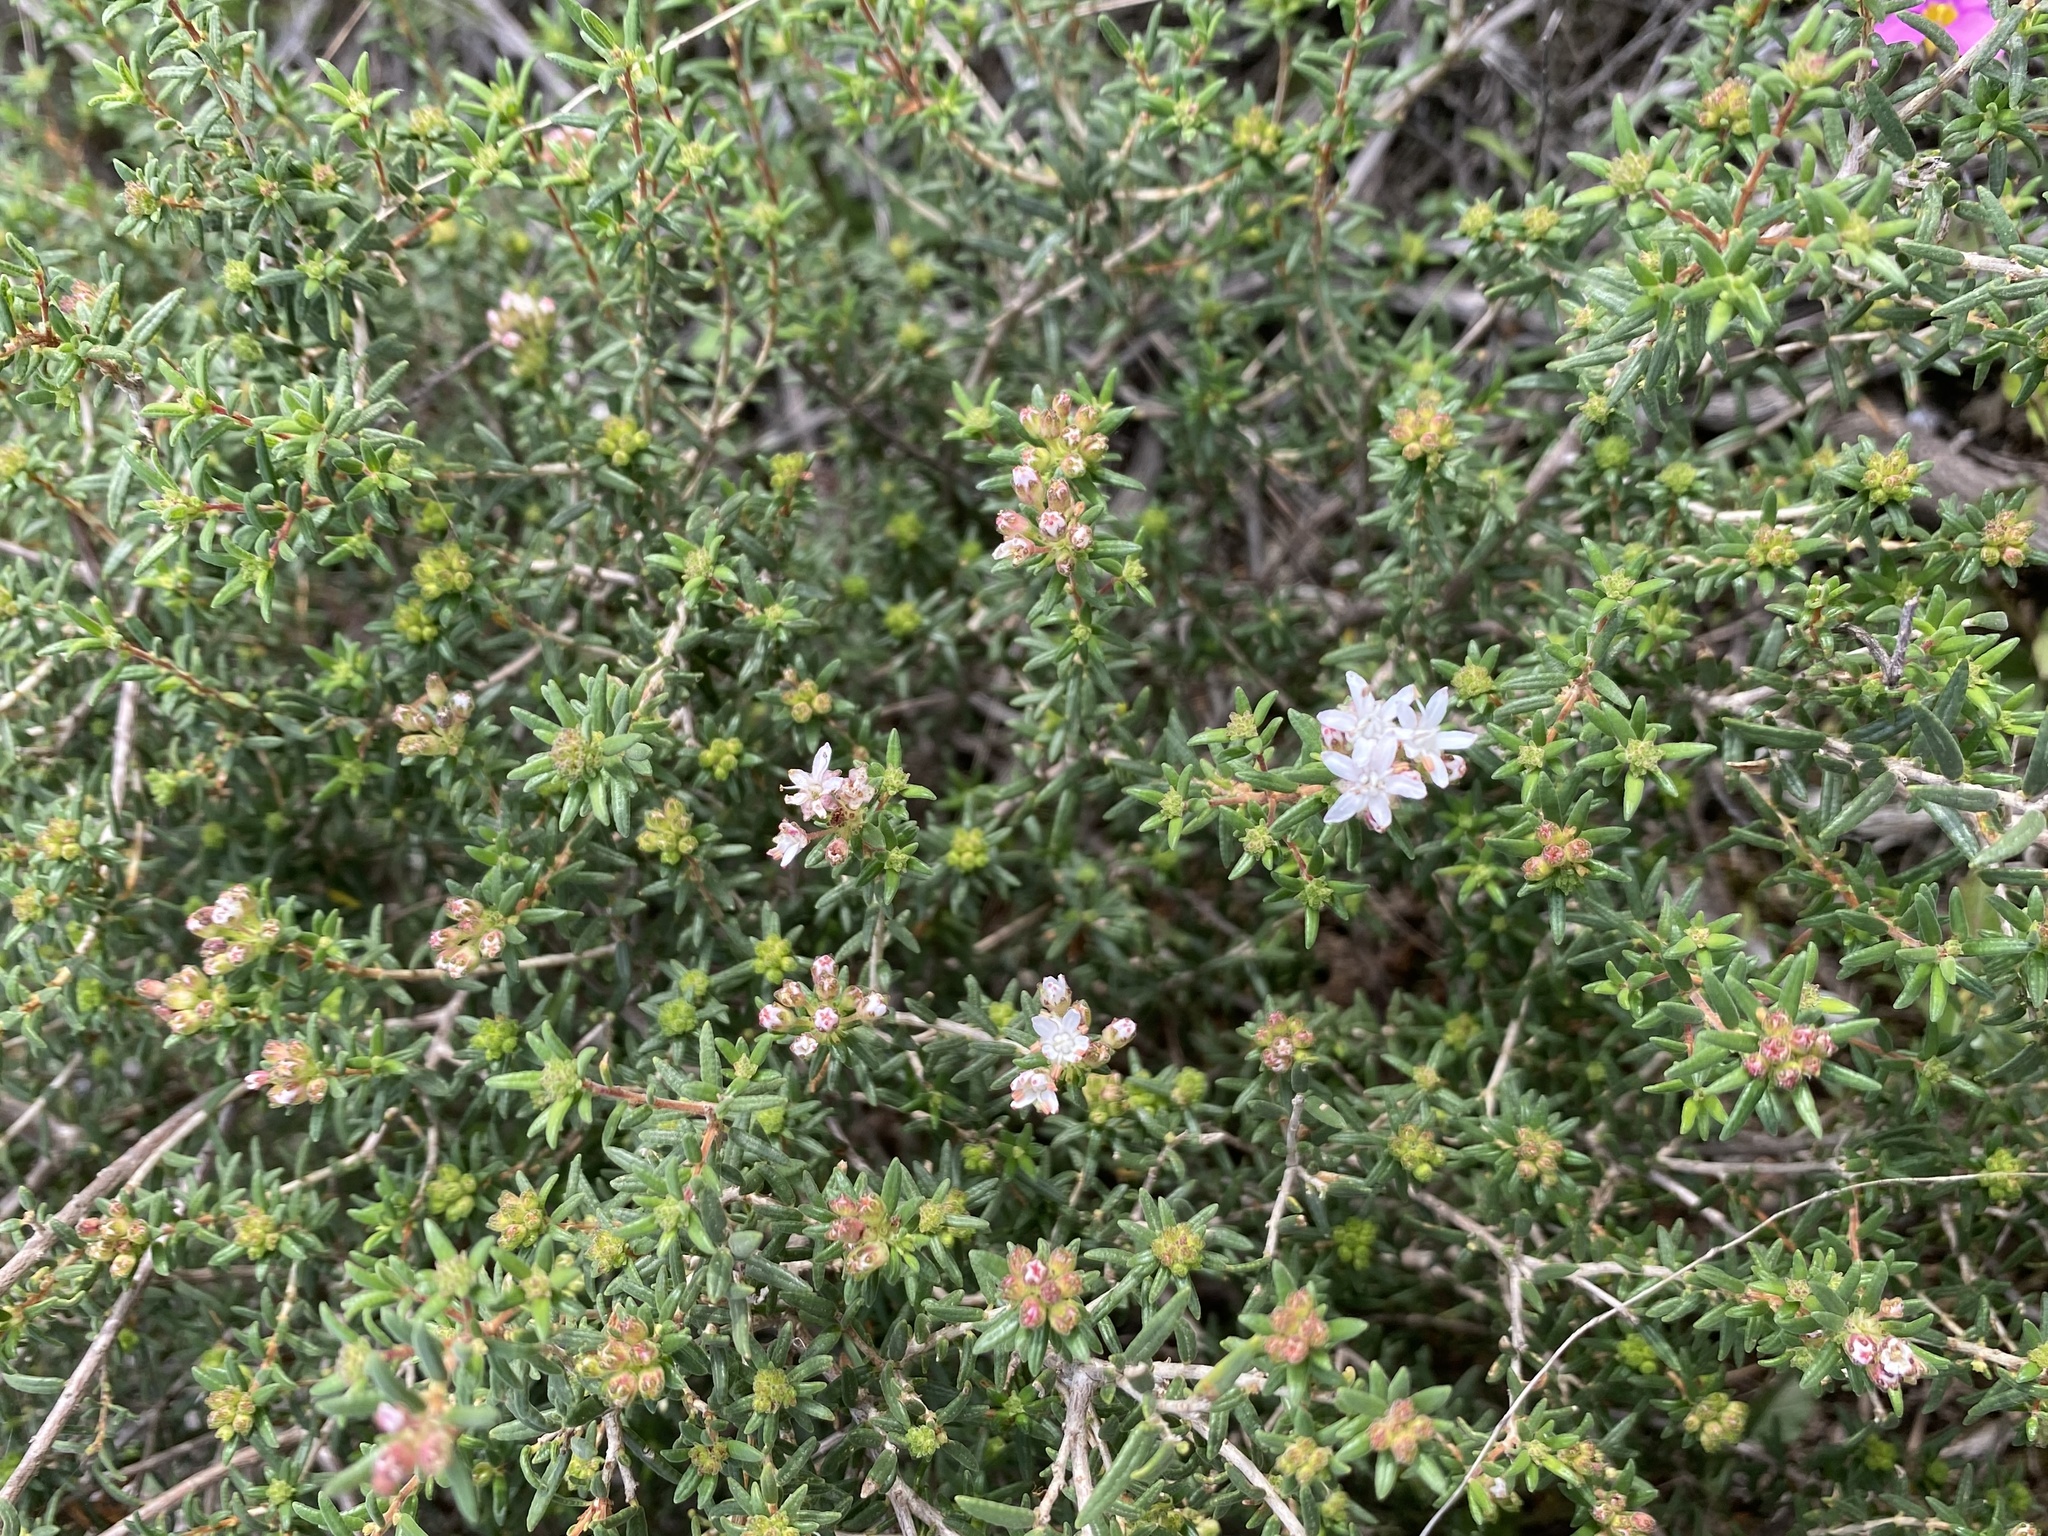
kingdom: Plantae
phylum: Tracheophyta
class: Magnoliopsida
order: Sapindales
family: Rutaceae
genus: Agathosma
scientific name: Agathosma foetidissima
